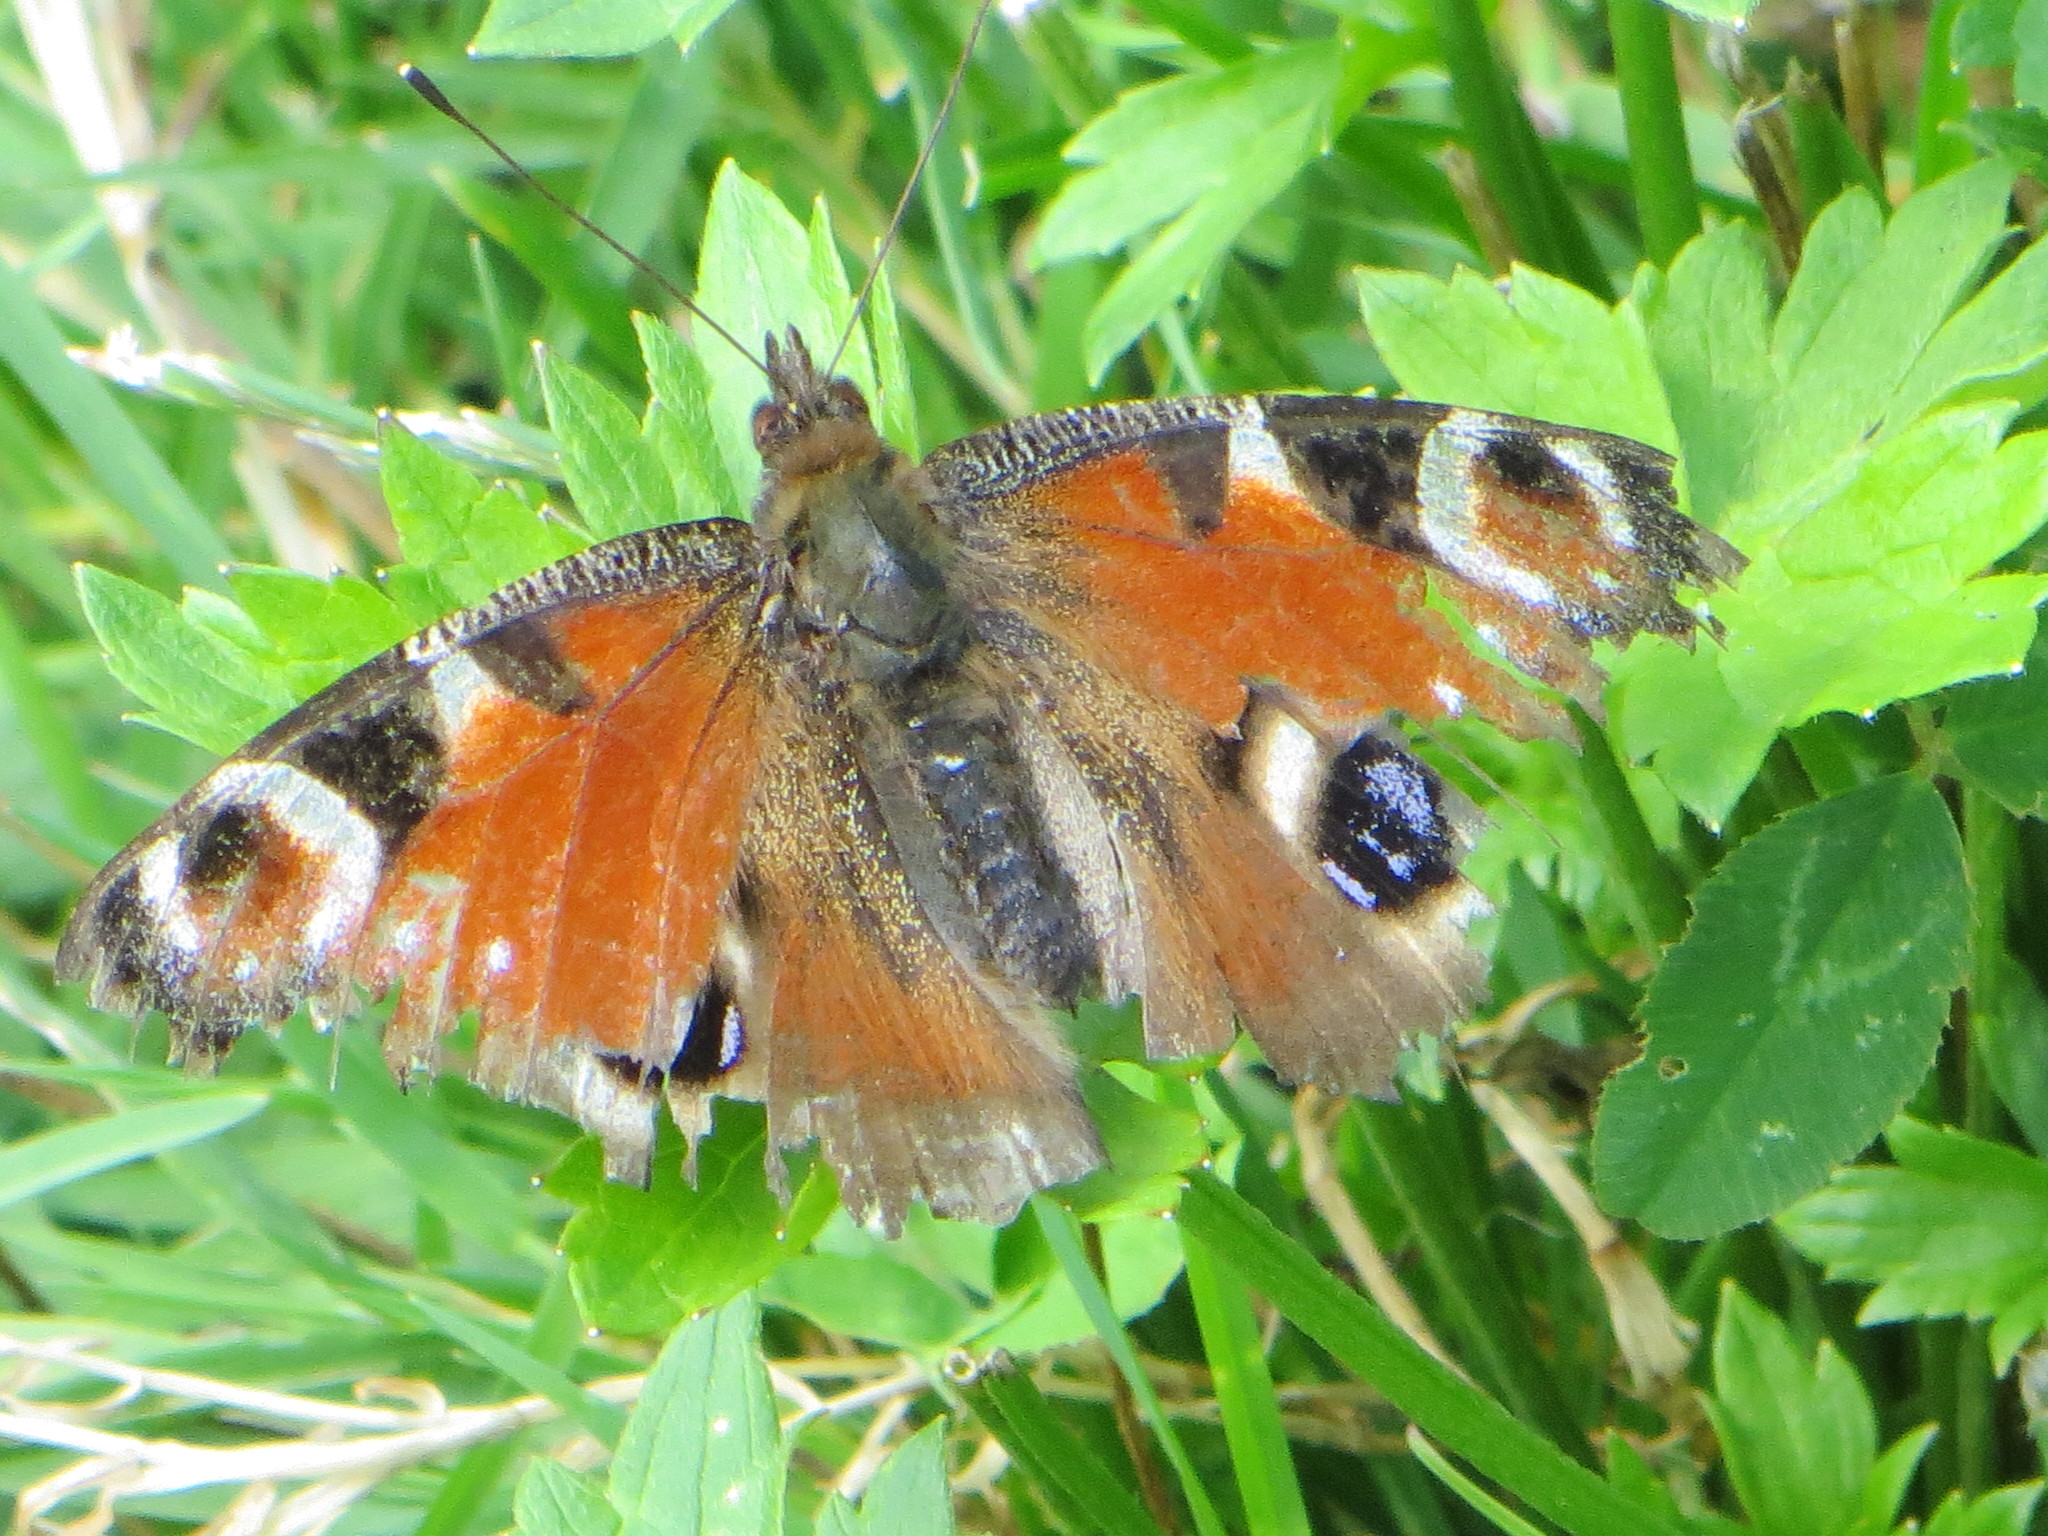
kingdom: Animalia
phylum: Arthropoda
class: Insecta
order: Lepidoptera
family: Nymphalidae
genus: Aglais
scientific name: Aglais io
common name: Peacock
